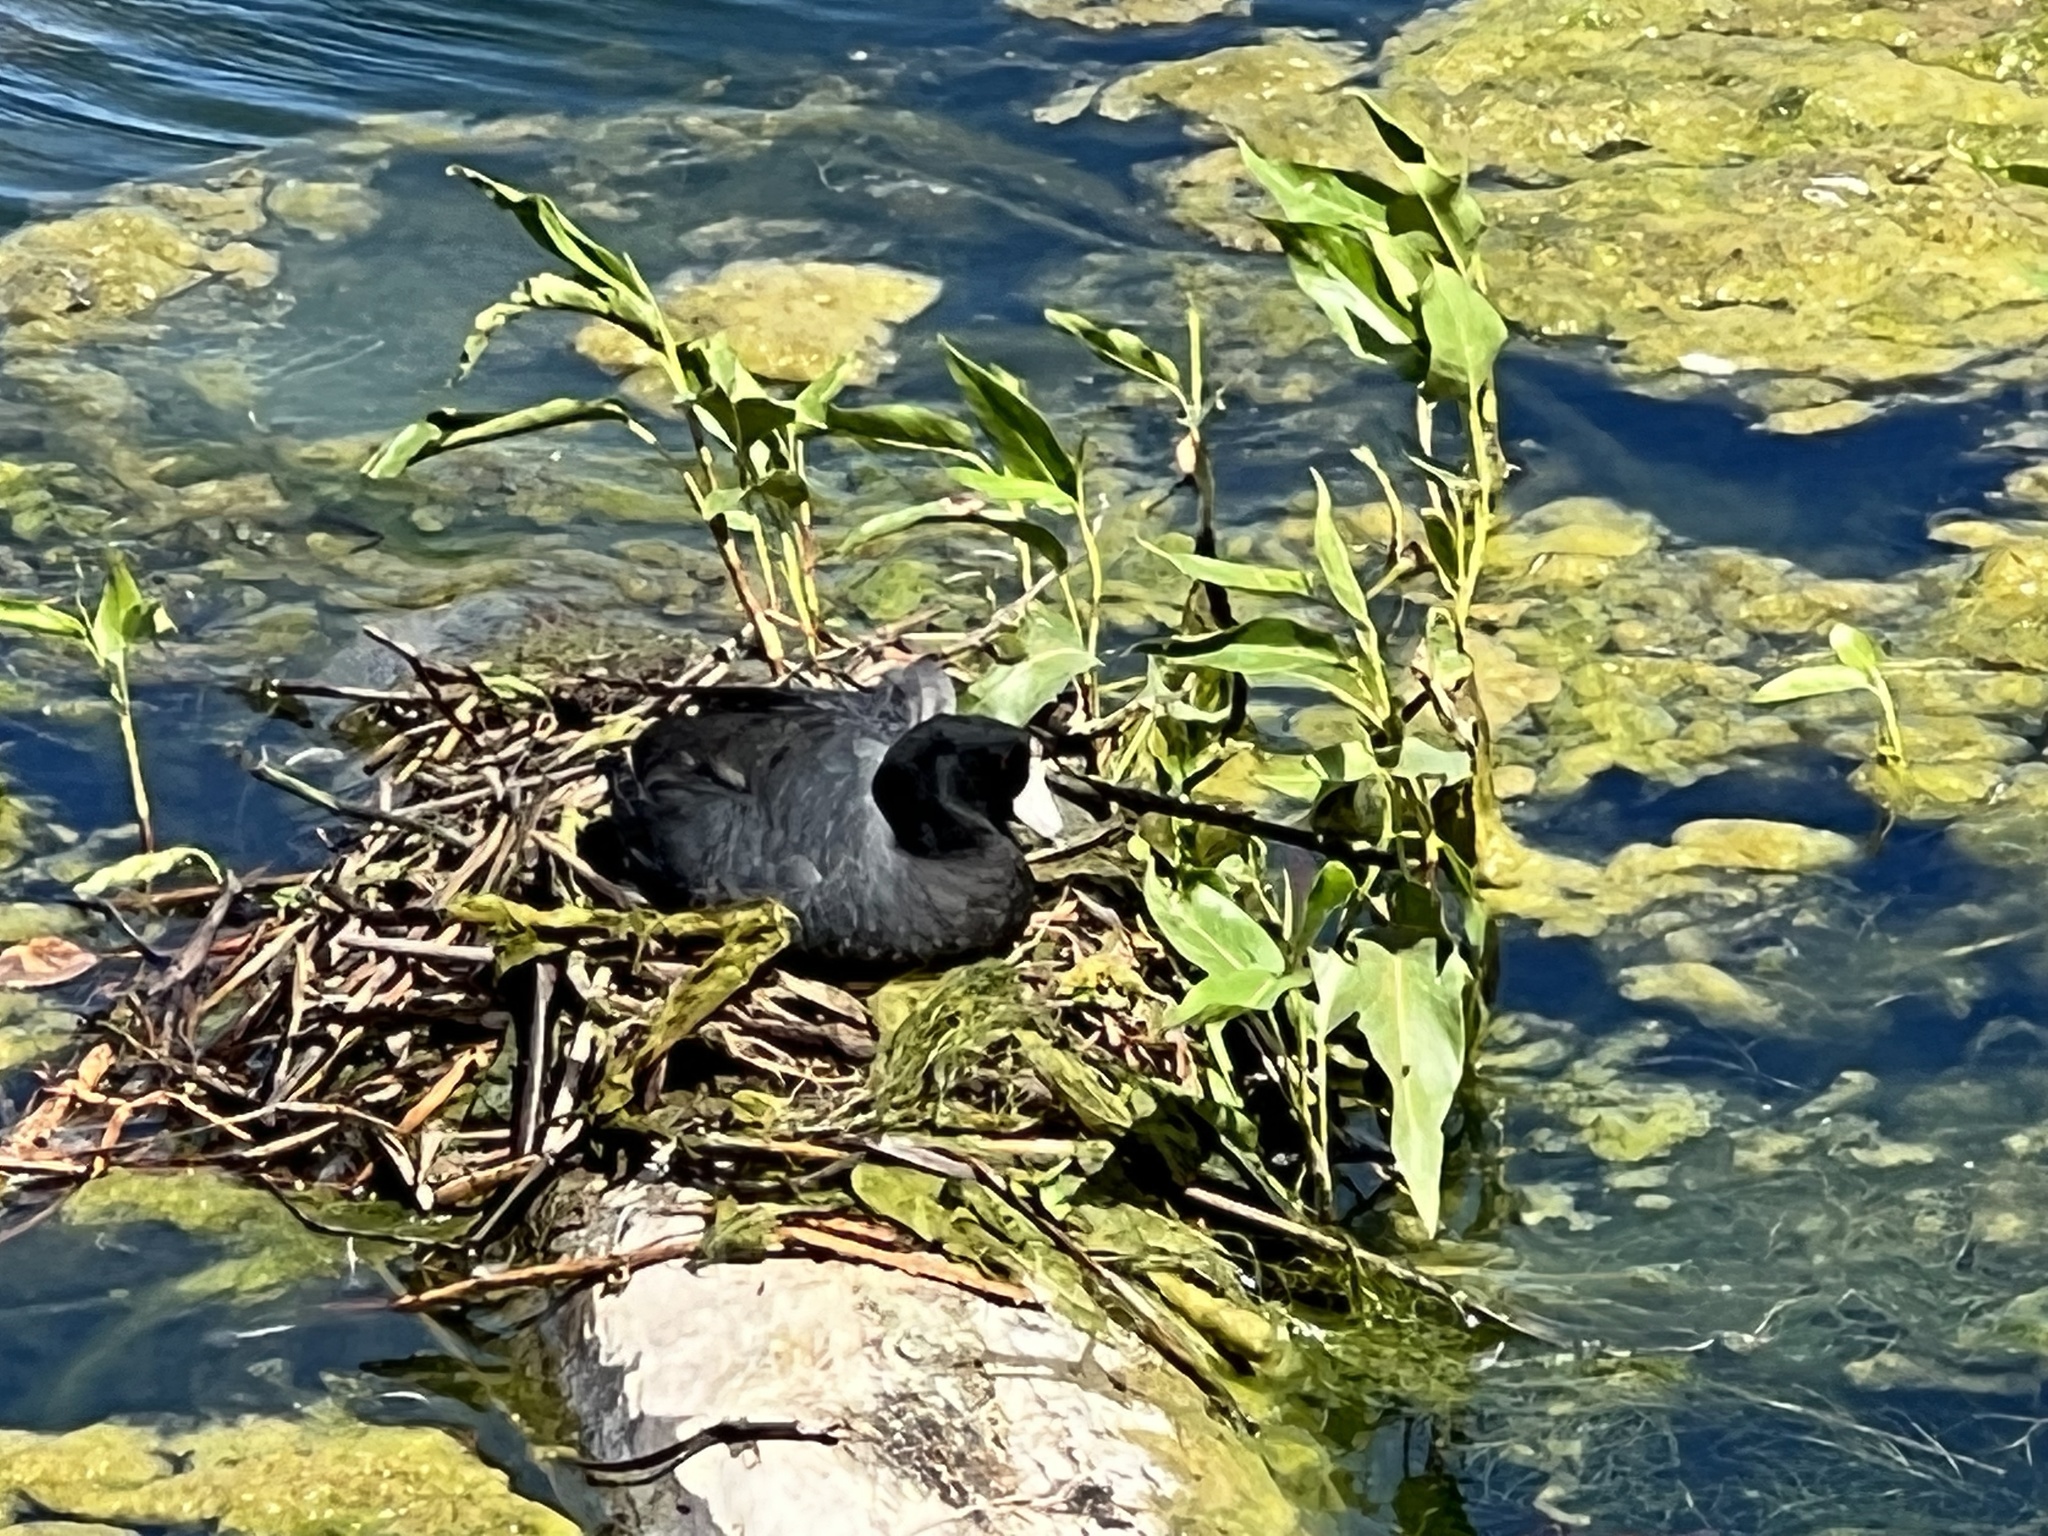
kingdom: Animalia
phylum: Chordata
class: Aves
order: Gruiformes
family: Rallidae
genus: Fulica
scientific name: Fulica americana
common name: American coot
